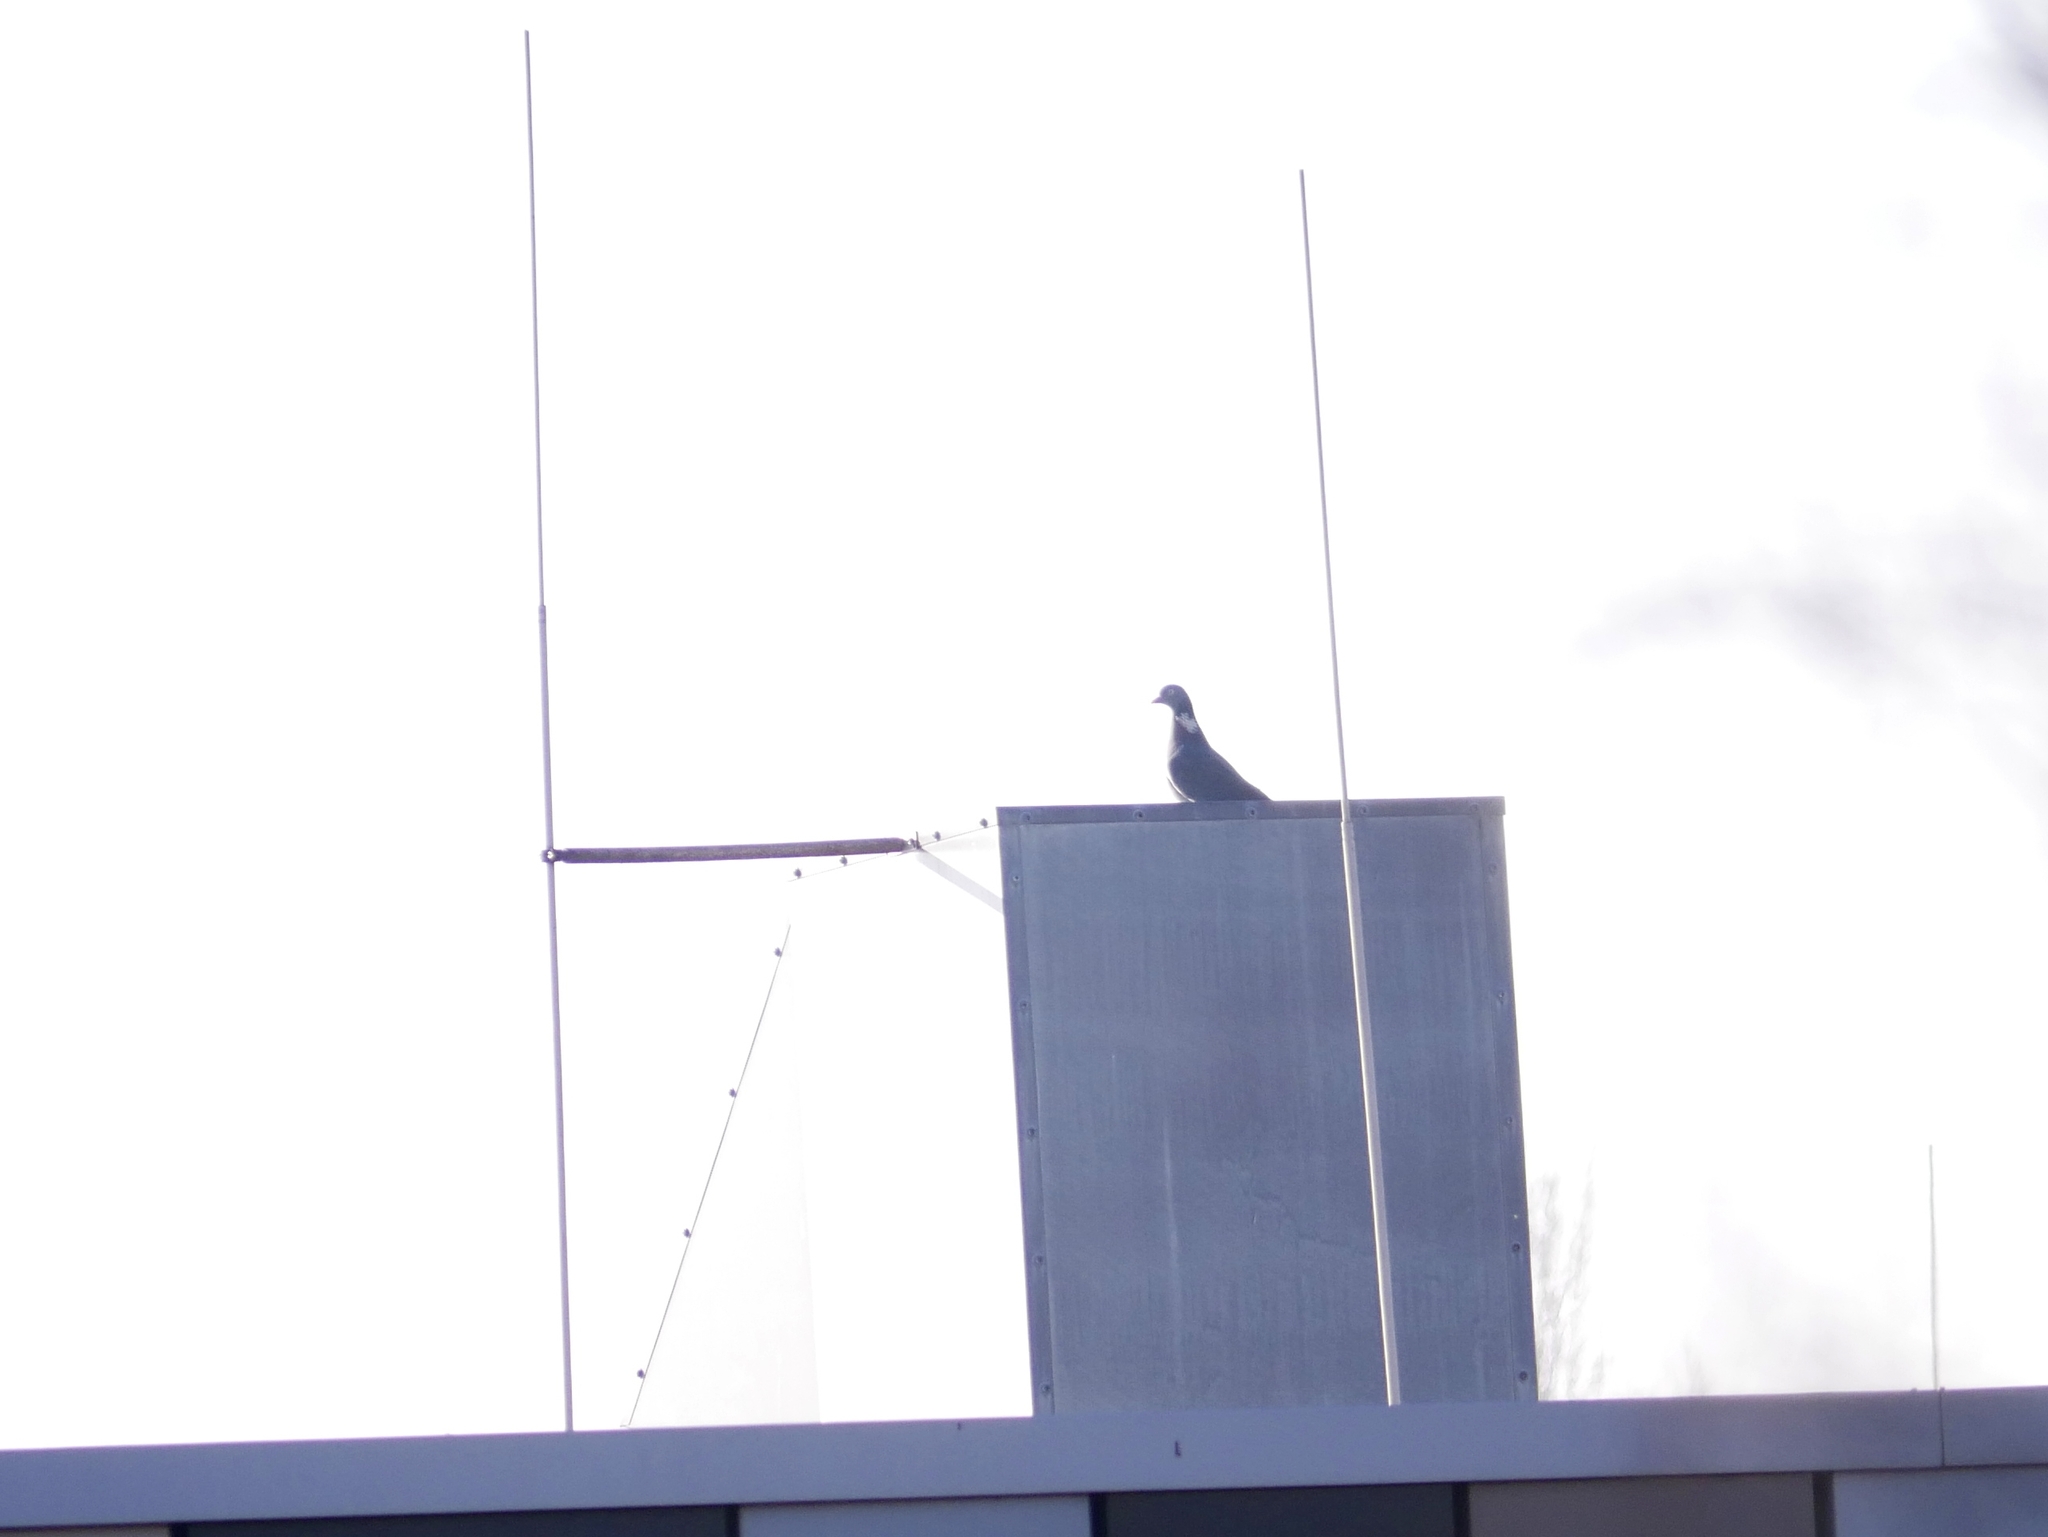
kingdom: Animalia
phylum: Chordata
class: Aves
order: Columbiformes
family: Columbidae
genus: Columba
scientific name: Columba palumbus
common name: Common wood pigeon
